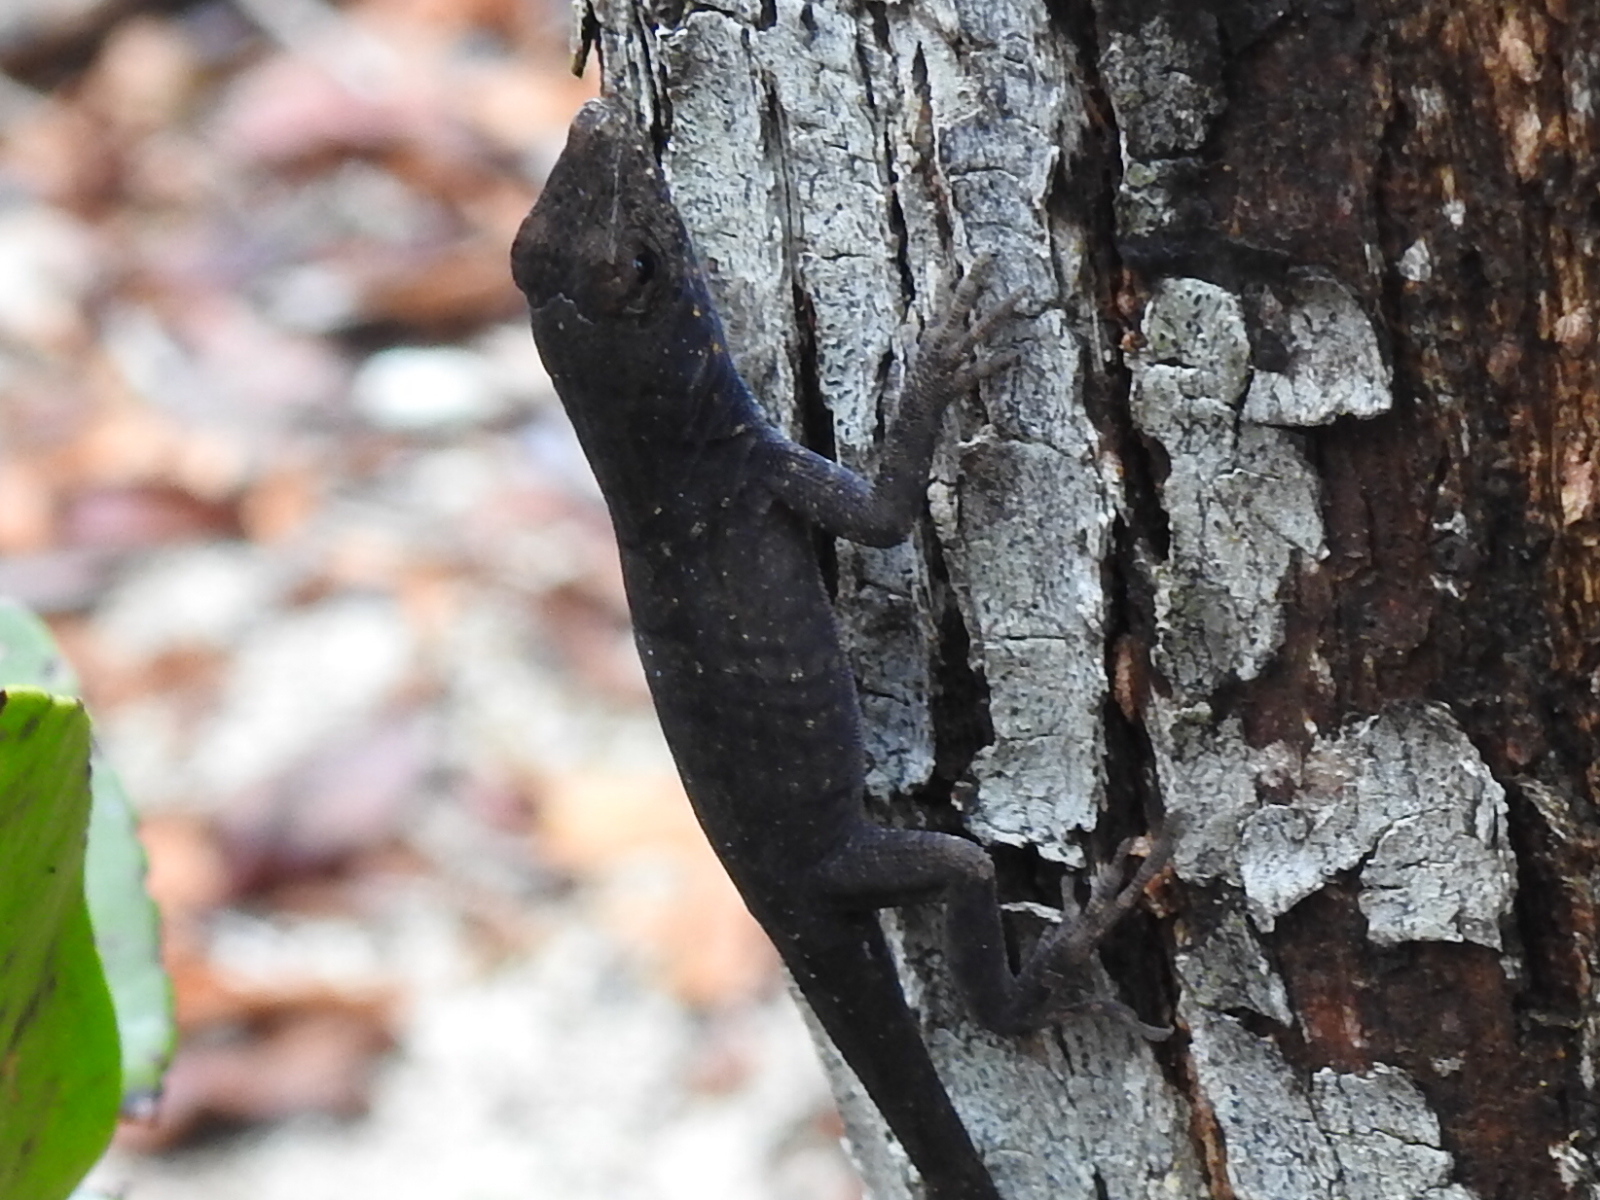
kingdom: Animalia
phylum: Chordata
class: Squamata
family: Dactyloidae
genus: Anolis
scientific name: Anolis sagrei
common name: Brown anole
